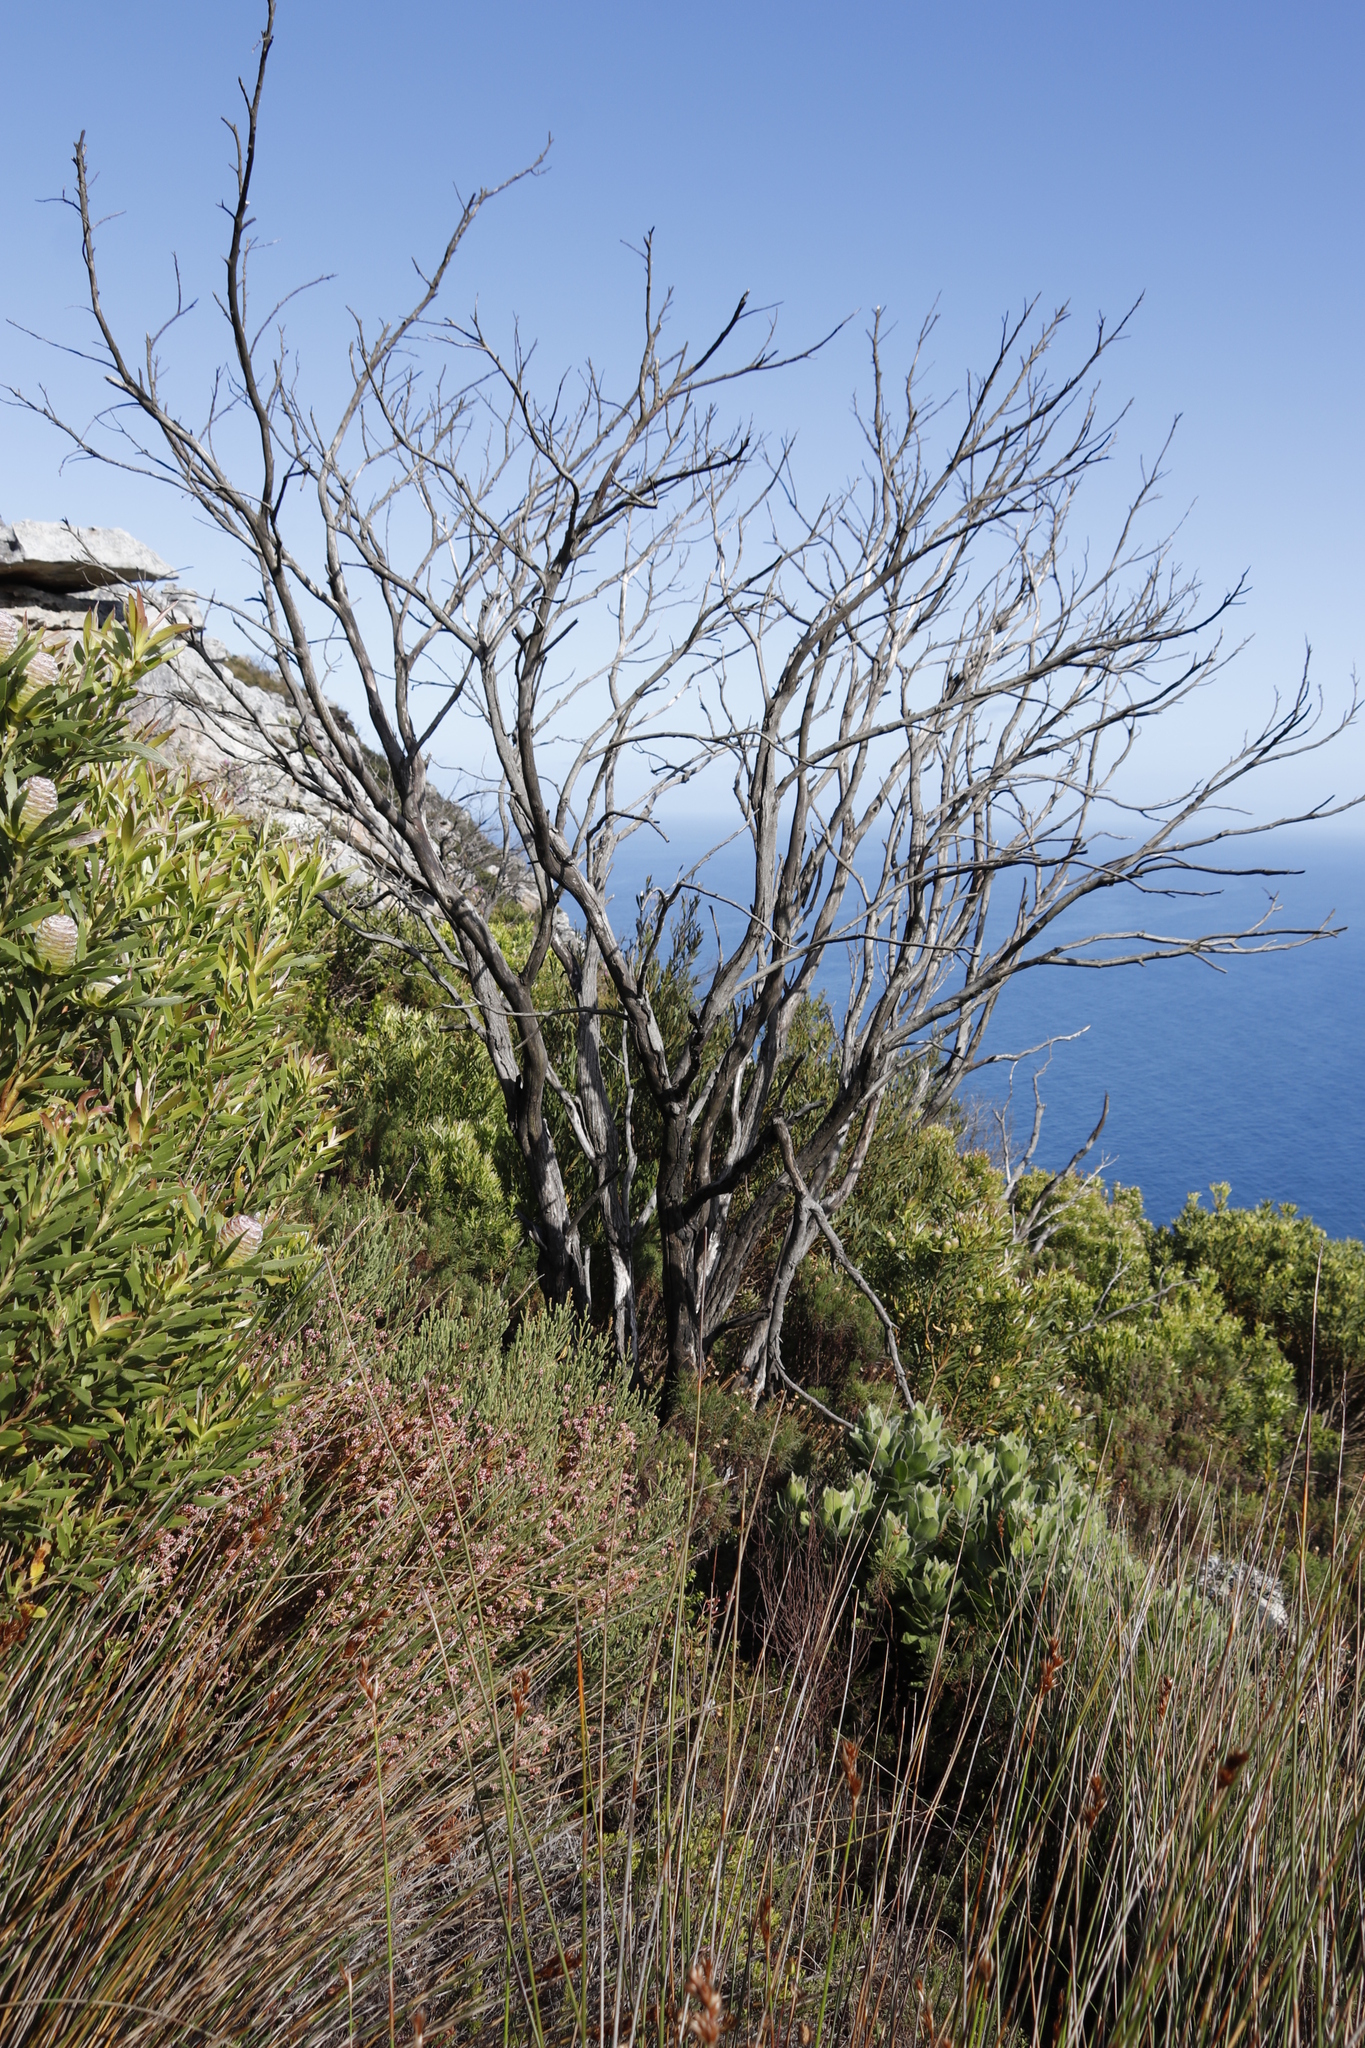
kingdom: Plantae
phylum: Tracheophyta
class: Magnoliopsida
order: Fabales
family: Fabaceae
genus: Acacia
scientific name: Acacia cyclops
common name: Coastal wattle
